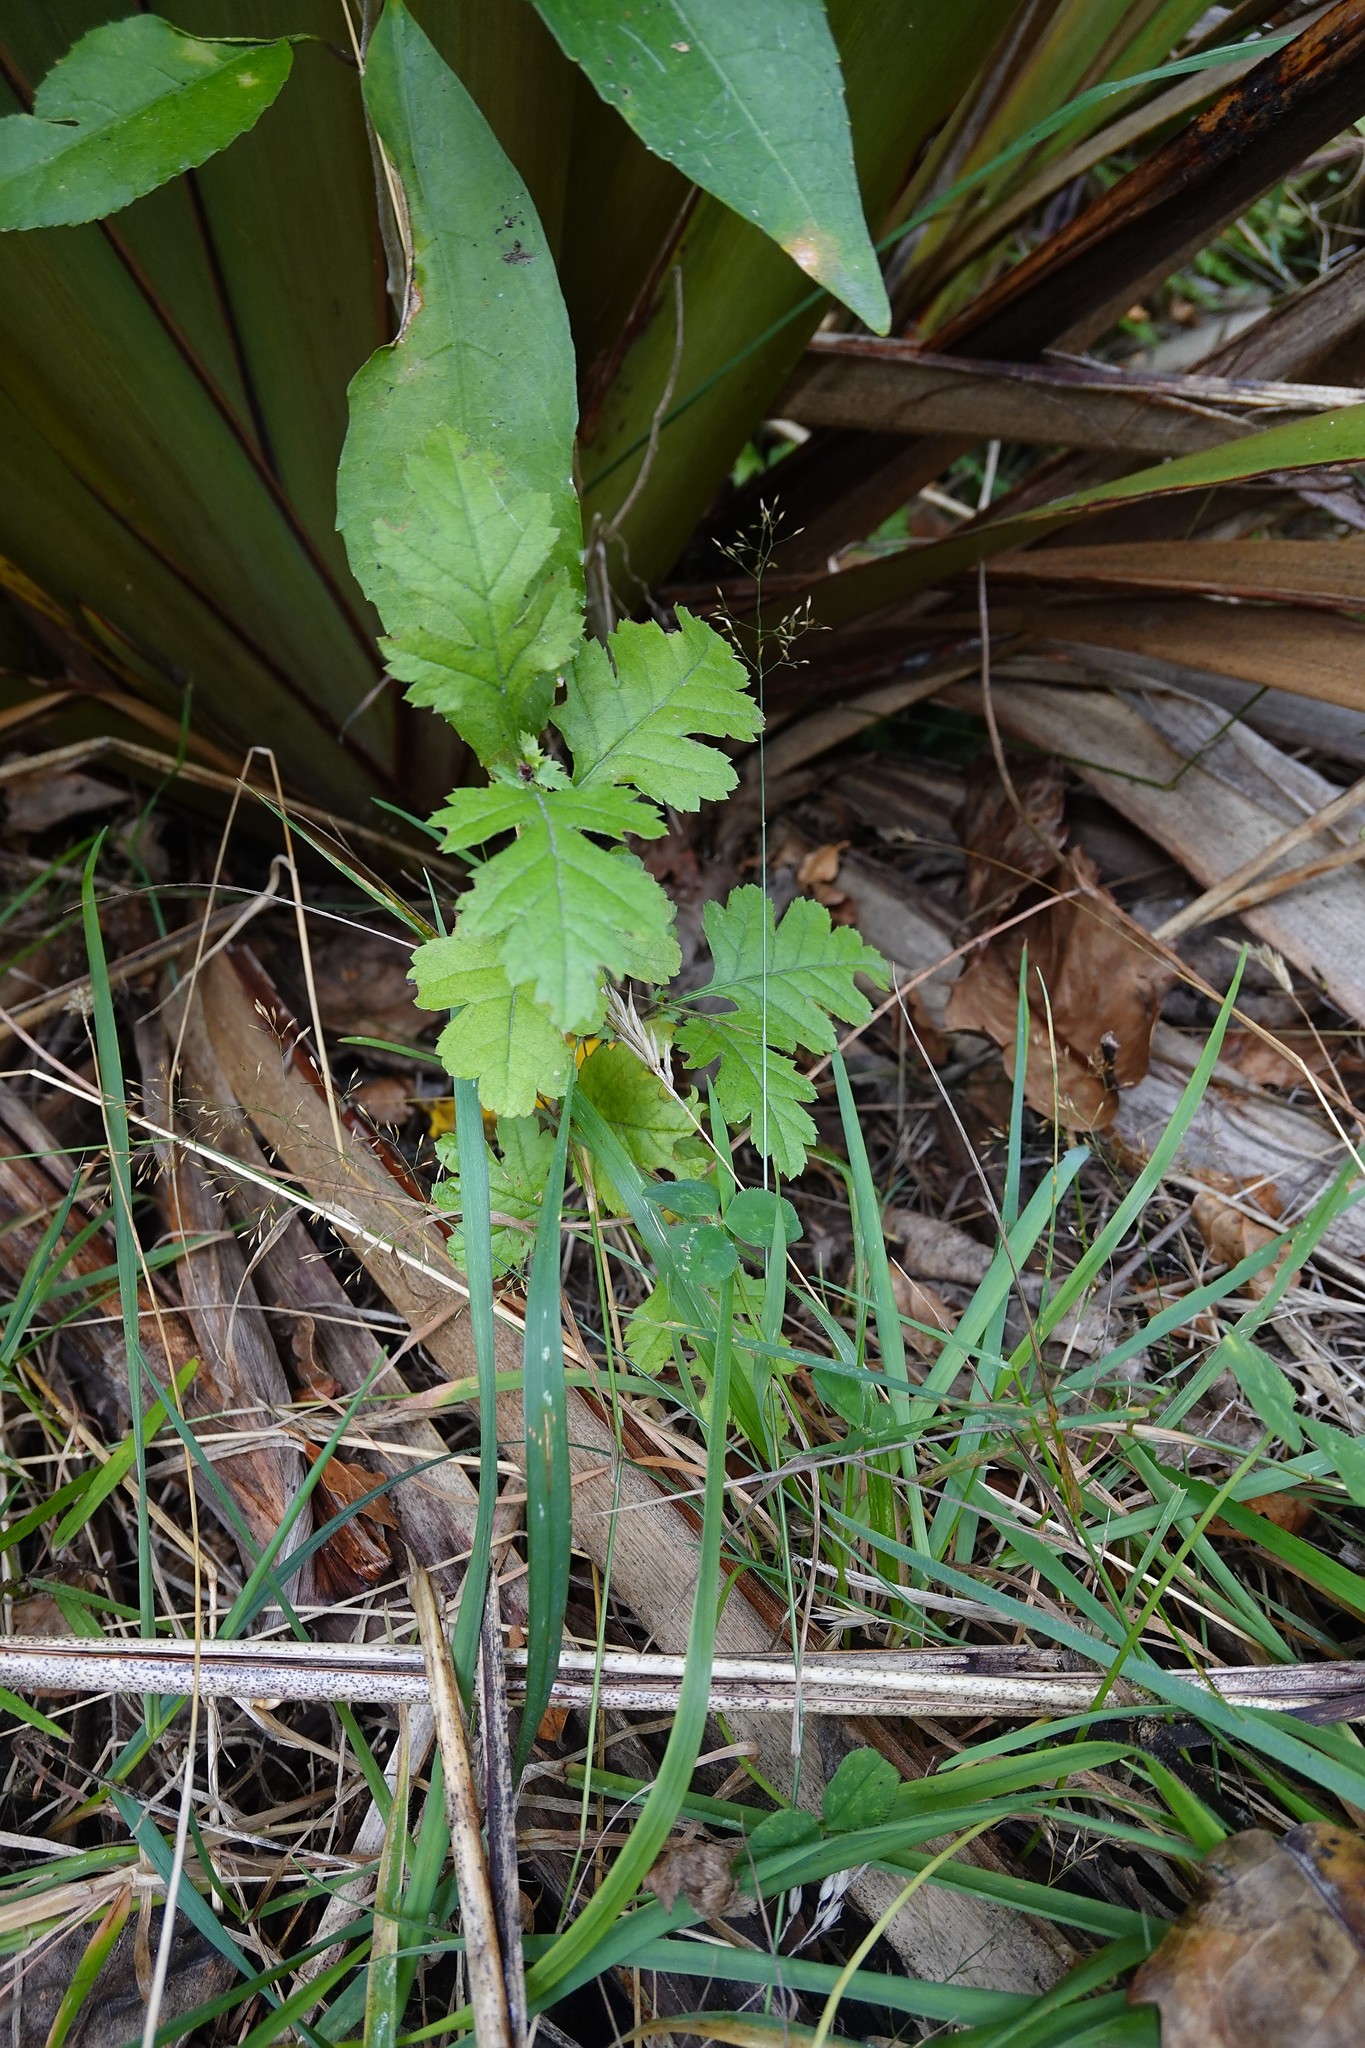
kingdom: Plantae
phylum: Tracheophyta
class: Magnoliopsida
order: Rosales
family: Rosaceae
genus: Crataegus
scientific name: Crataegus monogyna
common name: Hawthorn
